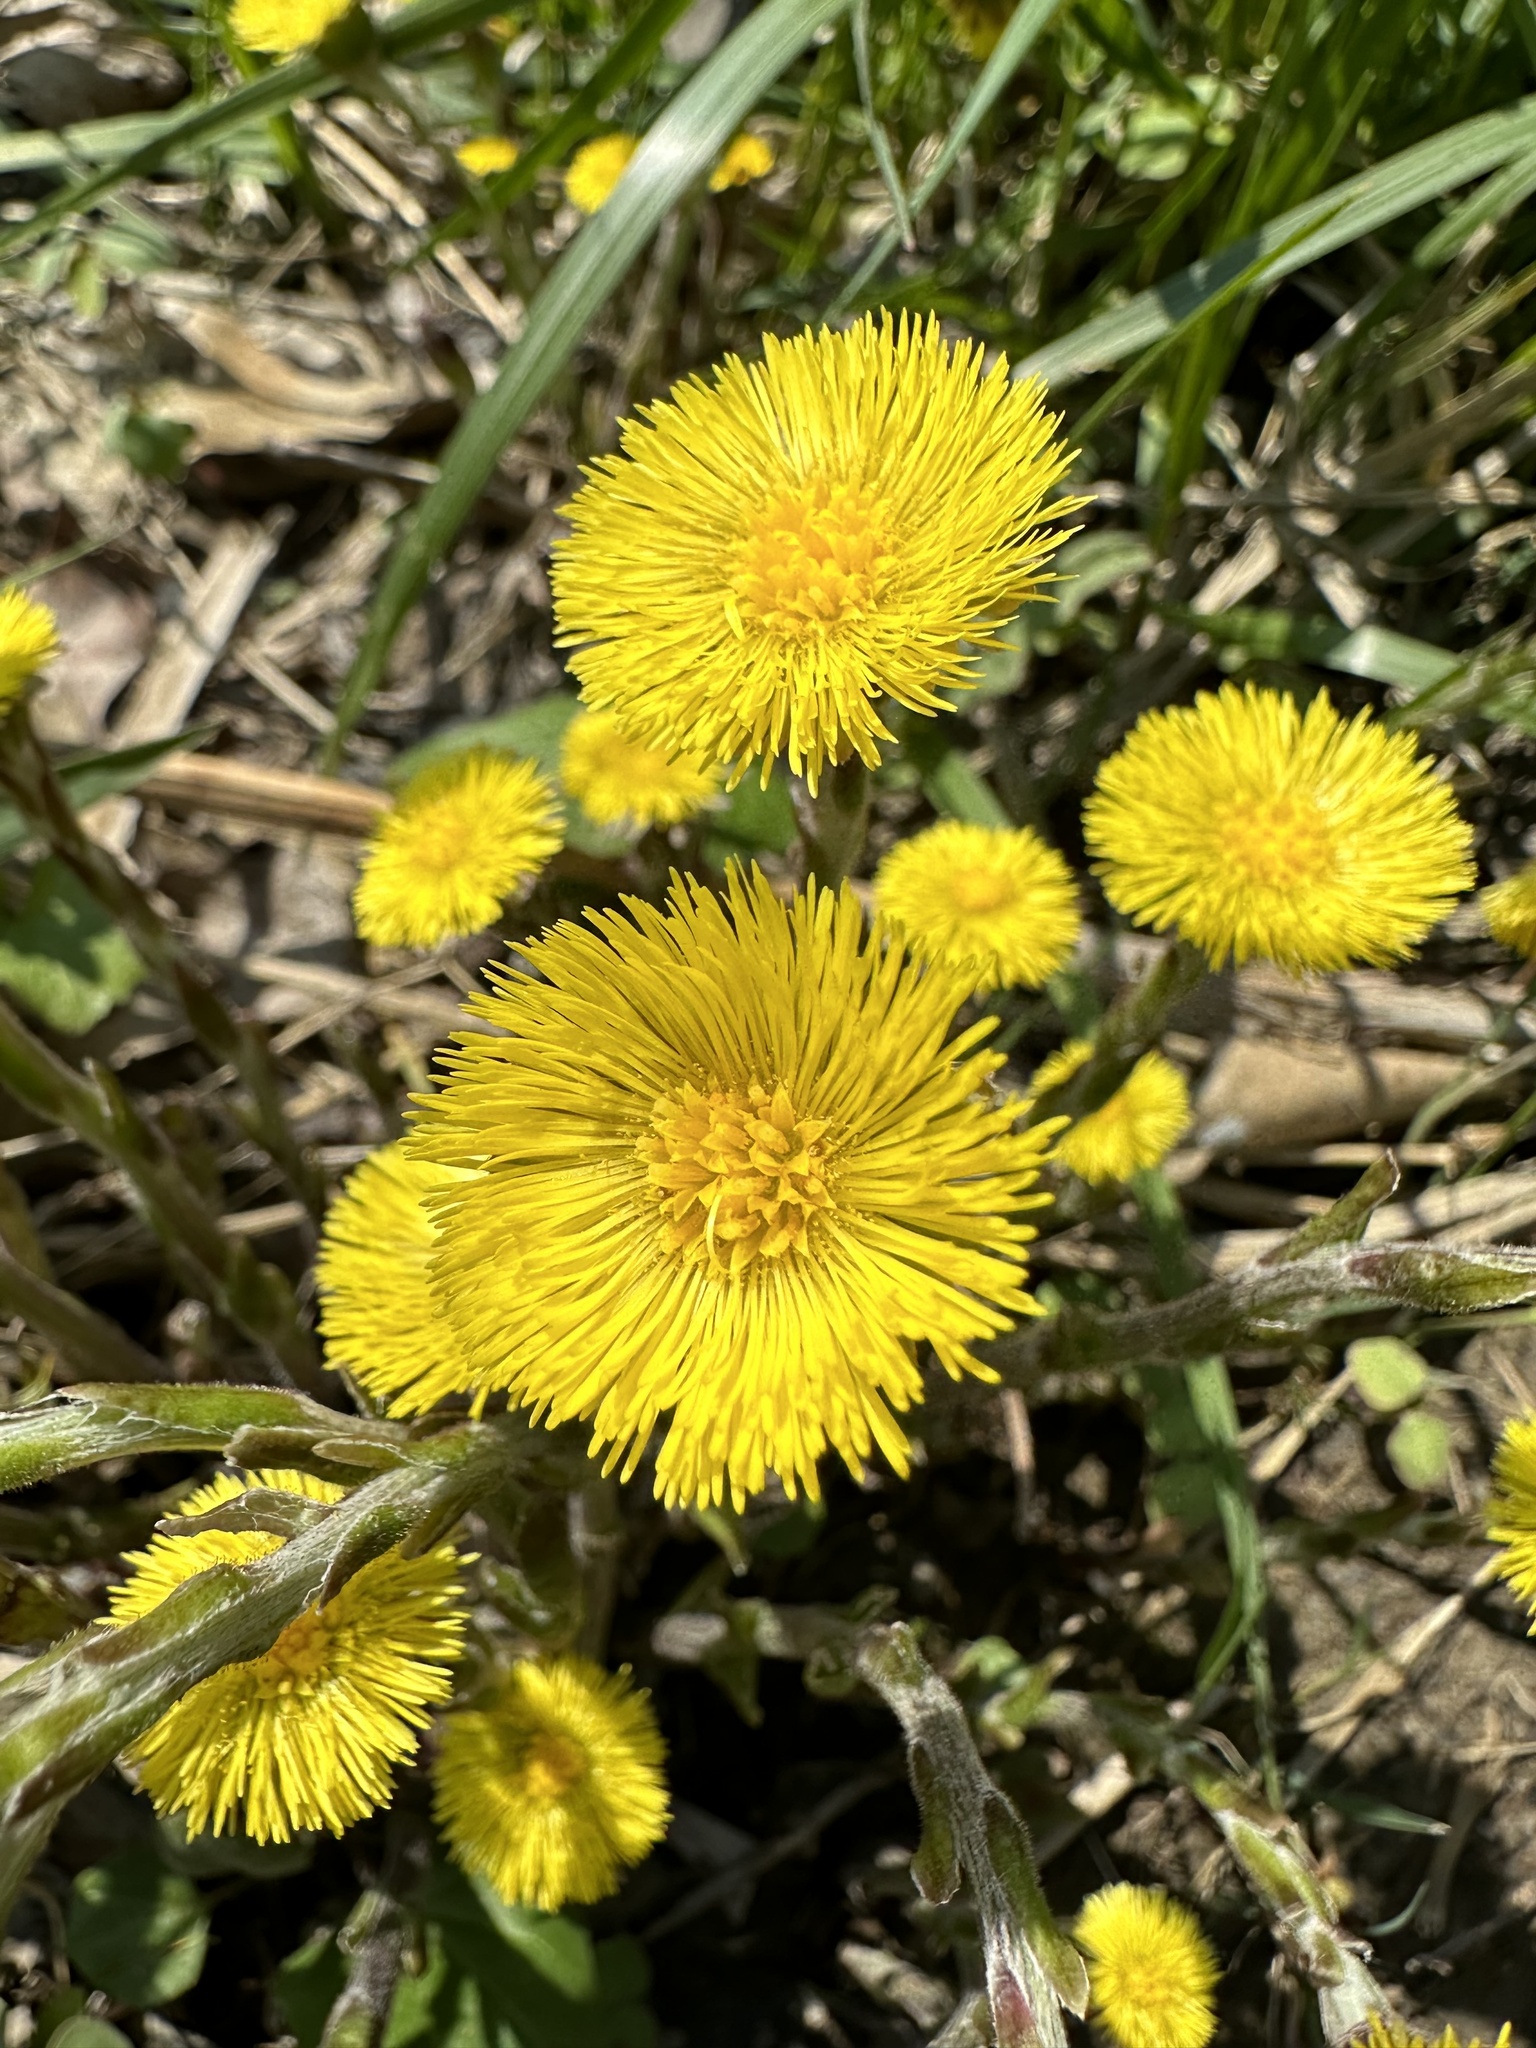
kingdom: Plantae
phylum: Tracheophyta
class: Magnoliopsida
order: Asterales
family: Asteraceae
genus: Tussilago
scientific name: Tussilago farfara
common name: Coltsfoot
